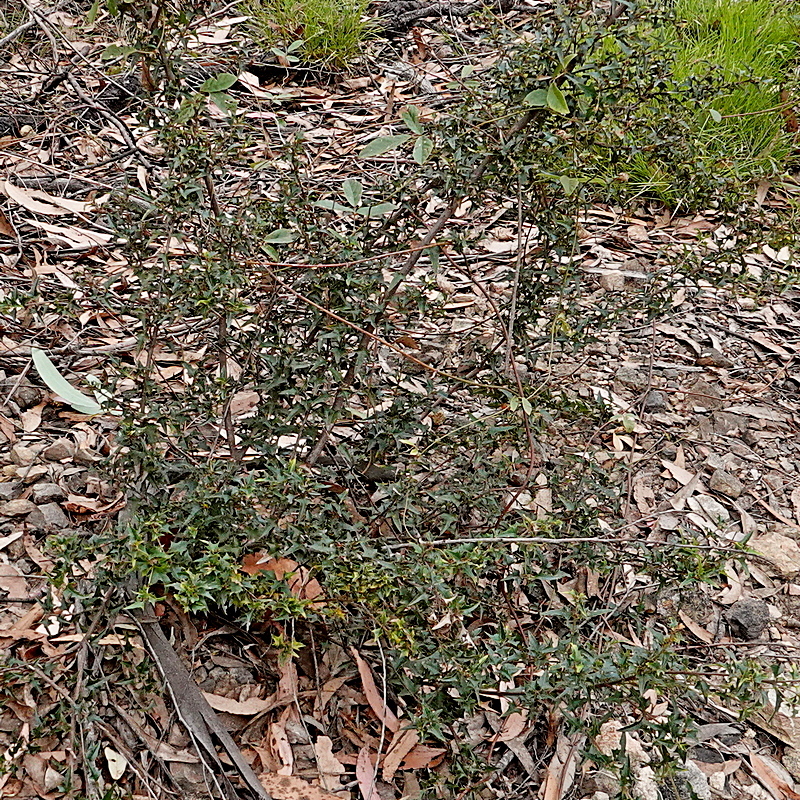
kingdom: Plantae
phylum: Tracheophyta
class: Magnoliopsida
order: Fabales
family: Fabaceae
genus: Podolobium
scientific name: Podolobium ilicifolium
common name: Native holly
